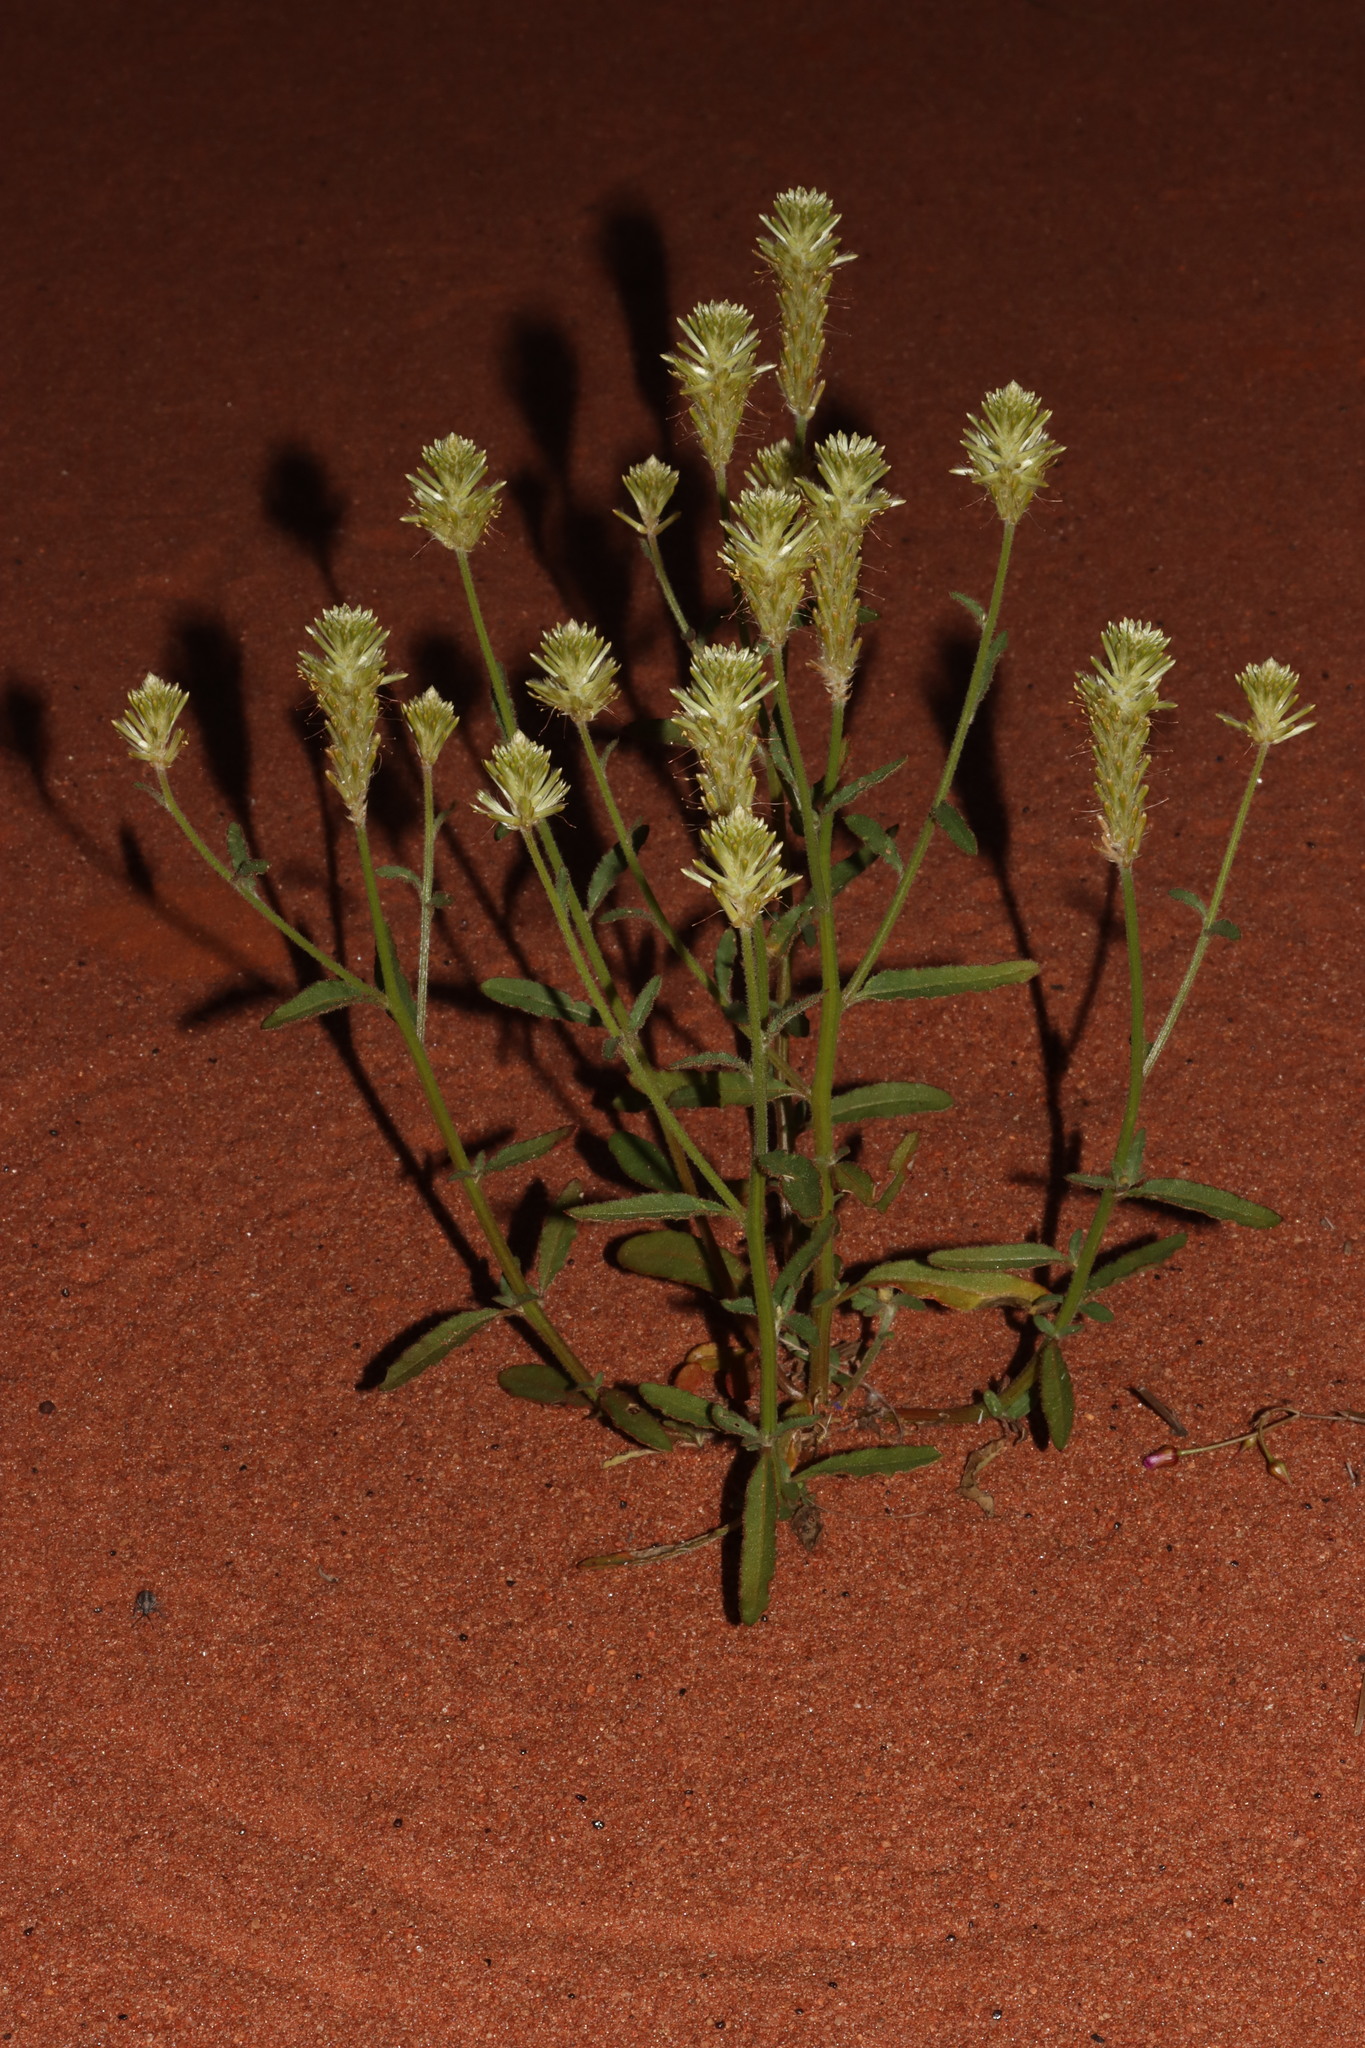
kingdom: Plantae
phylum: Tracheophyta
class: Magnoliopsida
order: Caryophyllales
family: Amaranthaceae
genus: Ptilotus
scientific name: Ptilotus polystachyus
